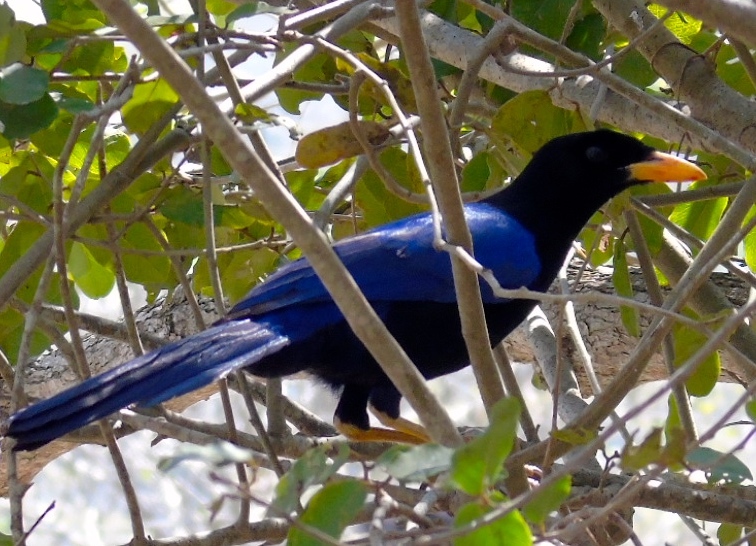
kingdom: Animalia
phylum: Chordata
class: Aves
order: Passeriformes
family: Corvidae
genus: Cyanocorax
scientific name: Cyanocorax beecheii
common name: Purplish-backed jay
